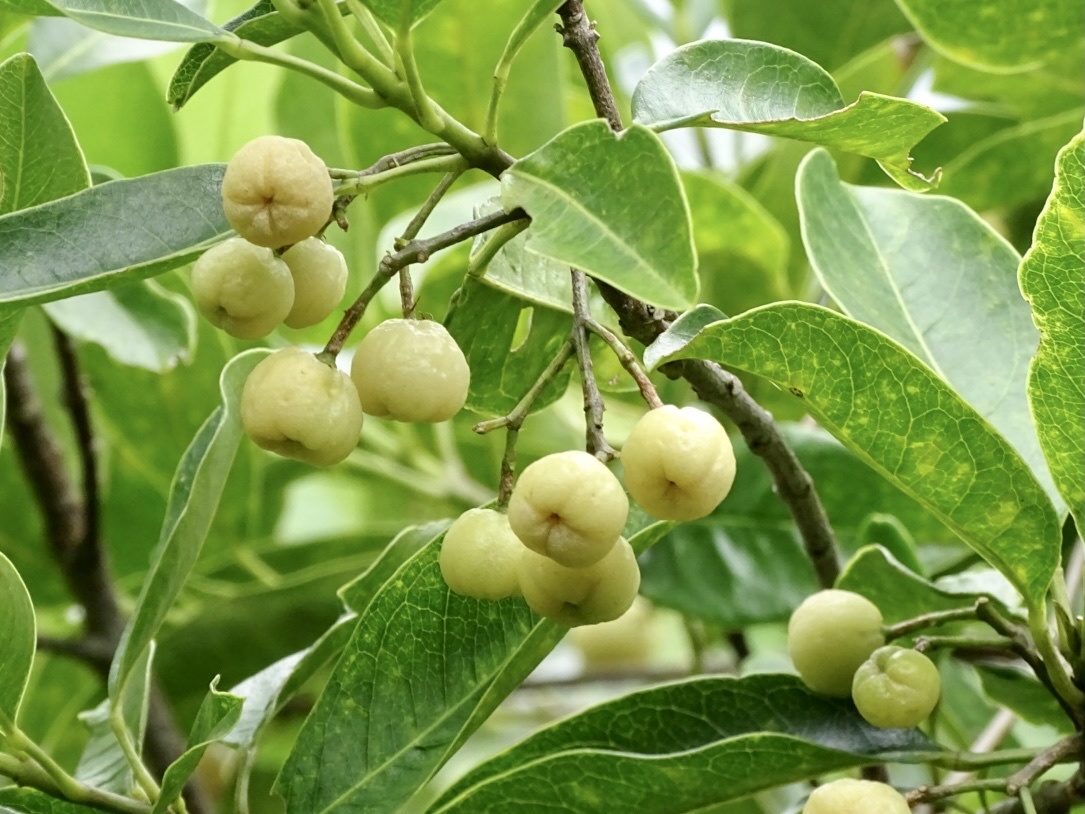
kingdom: Plantae
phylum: Tracheophyta
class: Magnoliopsida
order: Sapindales
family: Rutaceae
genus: Acronychia
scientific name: Acronychia pedunculata
